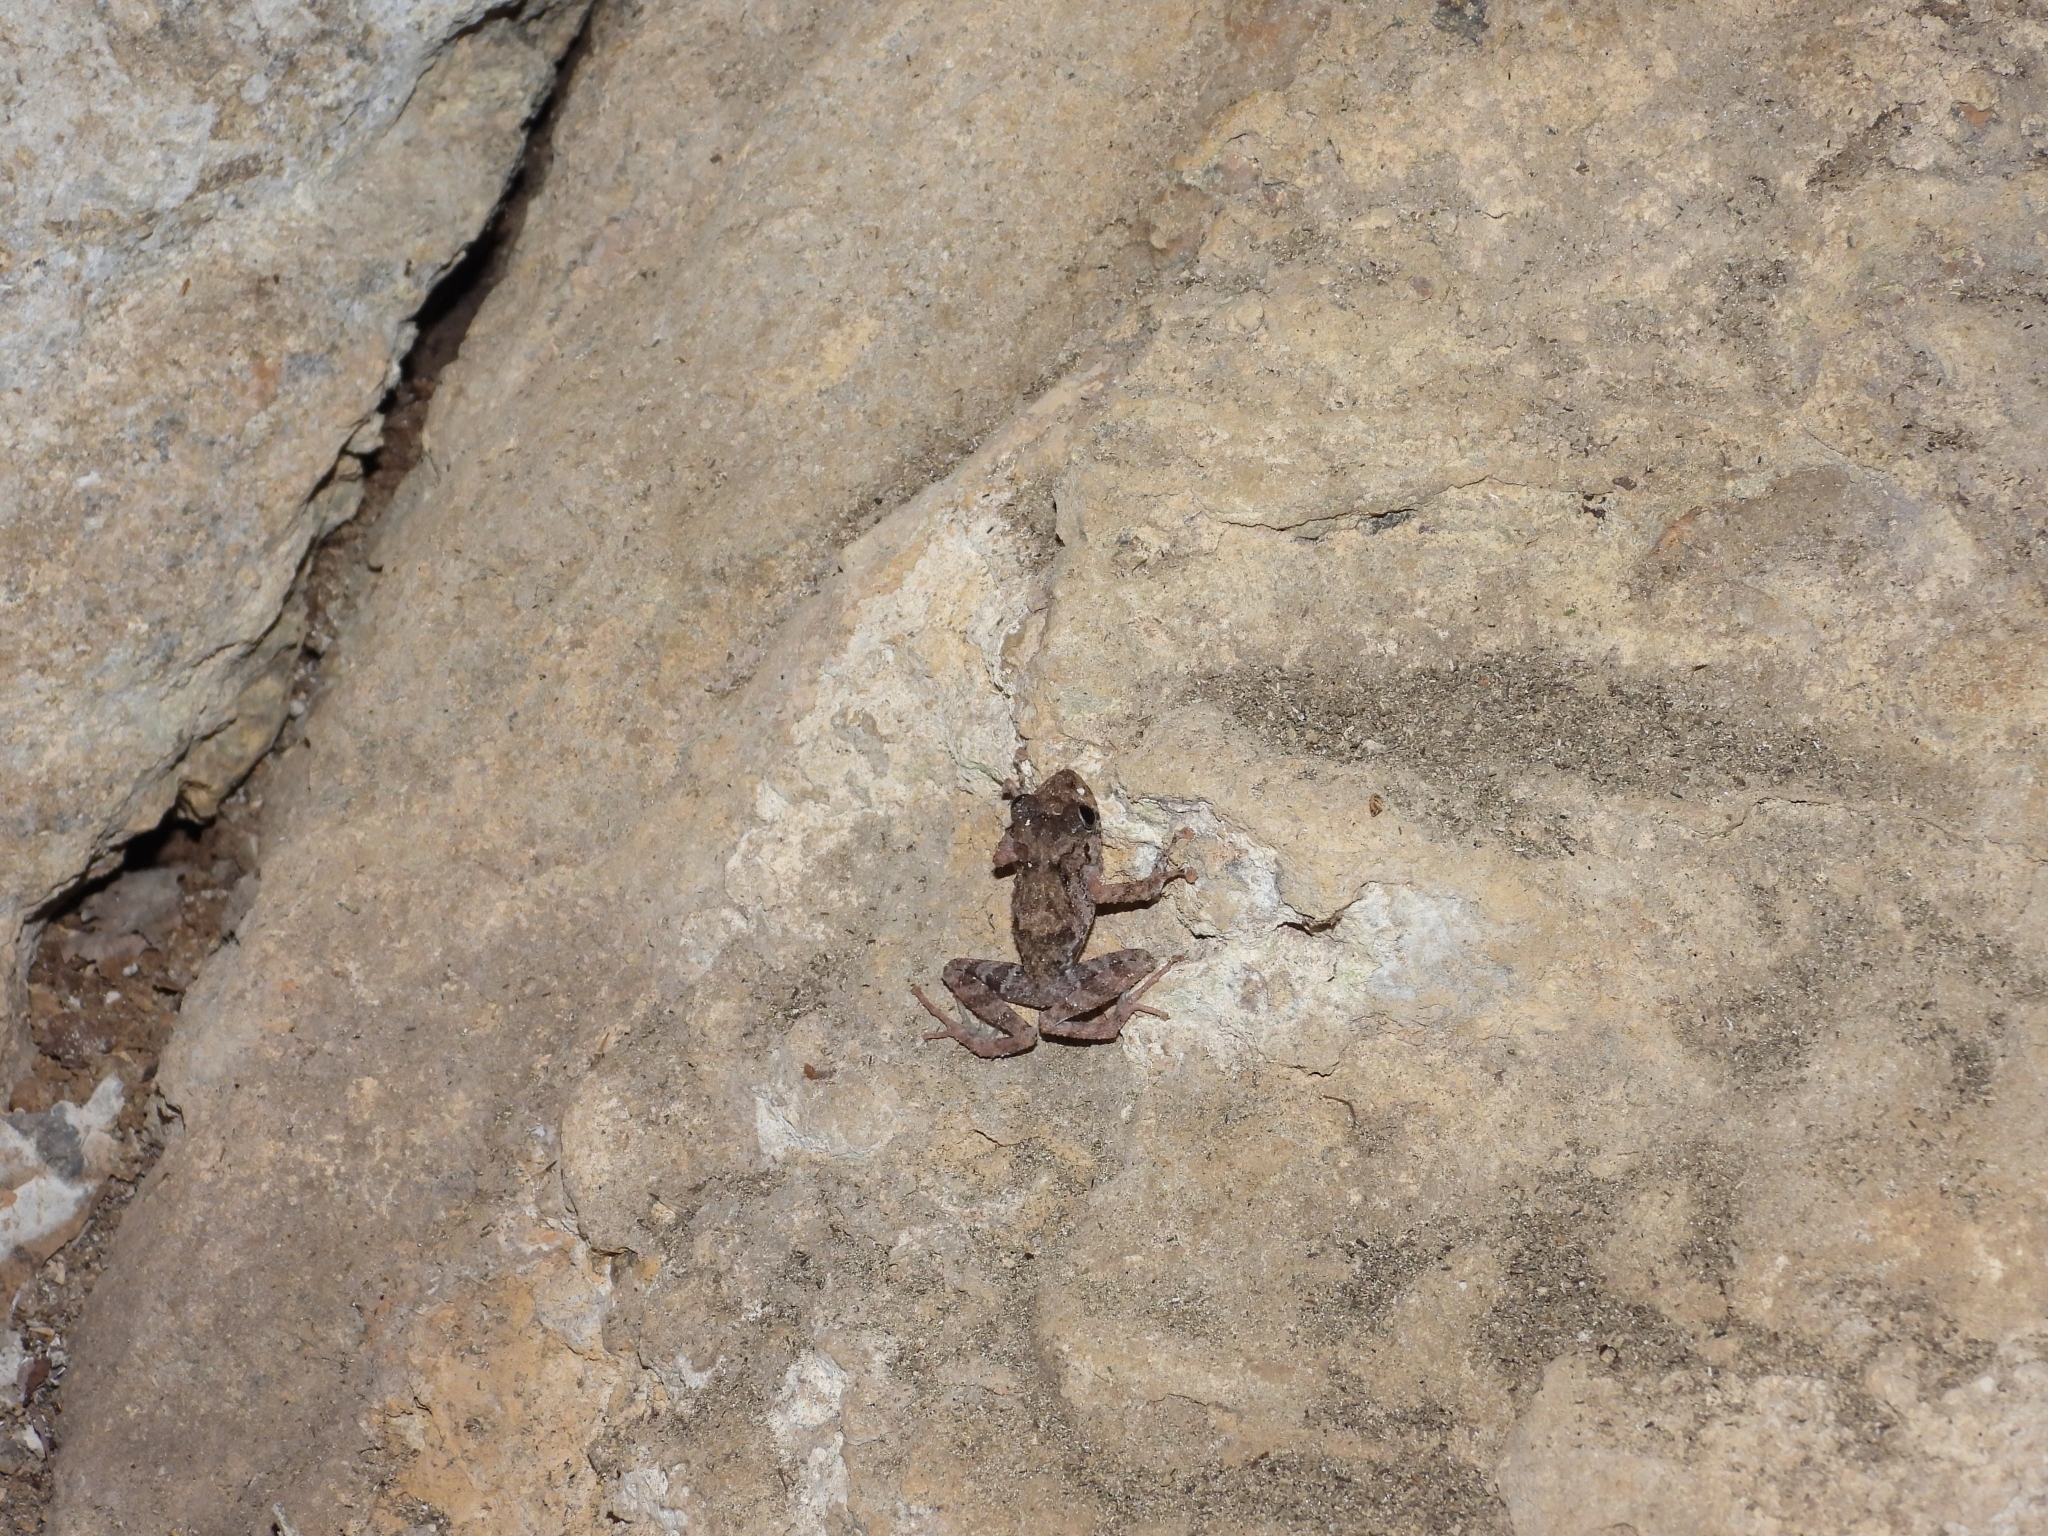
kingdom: Animalia
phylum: Chordata
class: Amphibia
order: Anura
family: Craugastoridae
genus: Craugastor
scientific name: Craugastor decoratus
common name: Adorned robber frog
